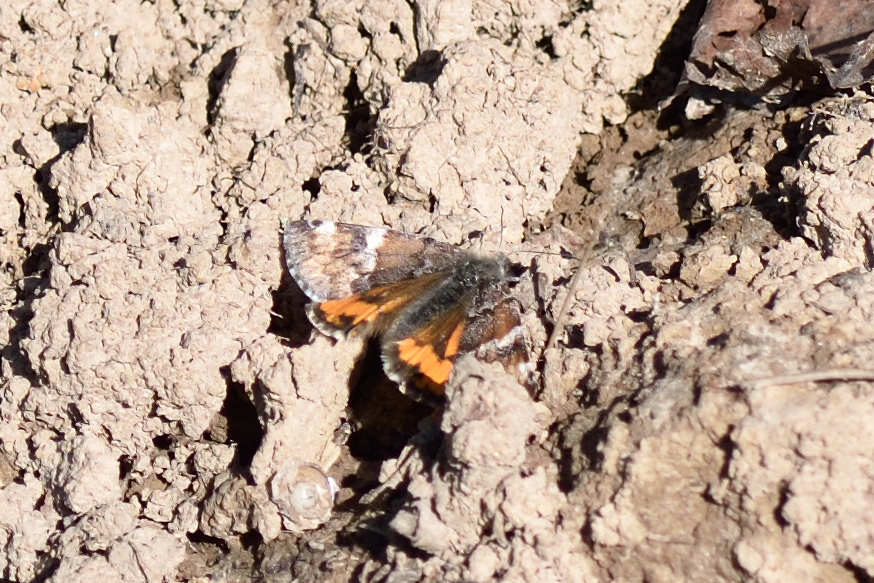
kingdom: Animalia
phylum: Arthropoda
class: Insecta
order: Lepidoptera
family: Geometridae
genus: Archiearis
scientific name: Archiearis parthenias
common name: Orange underwing
